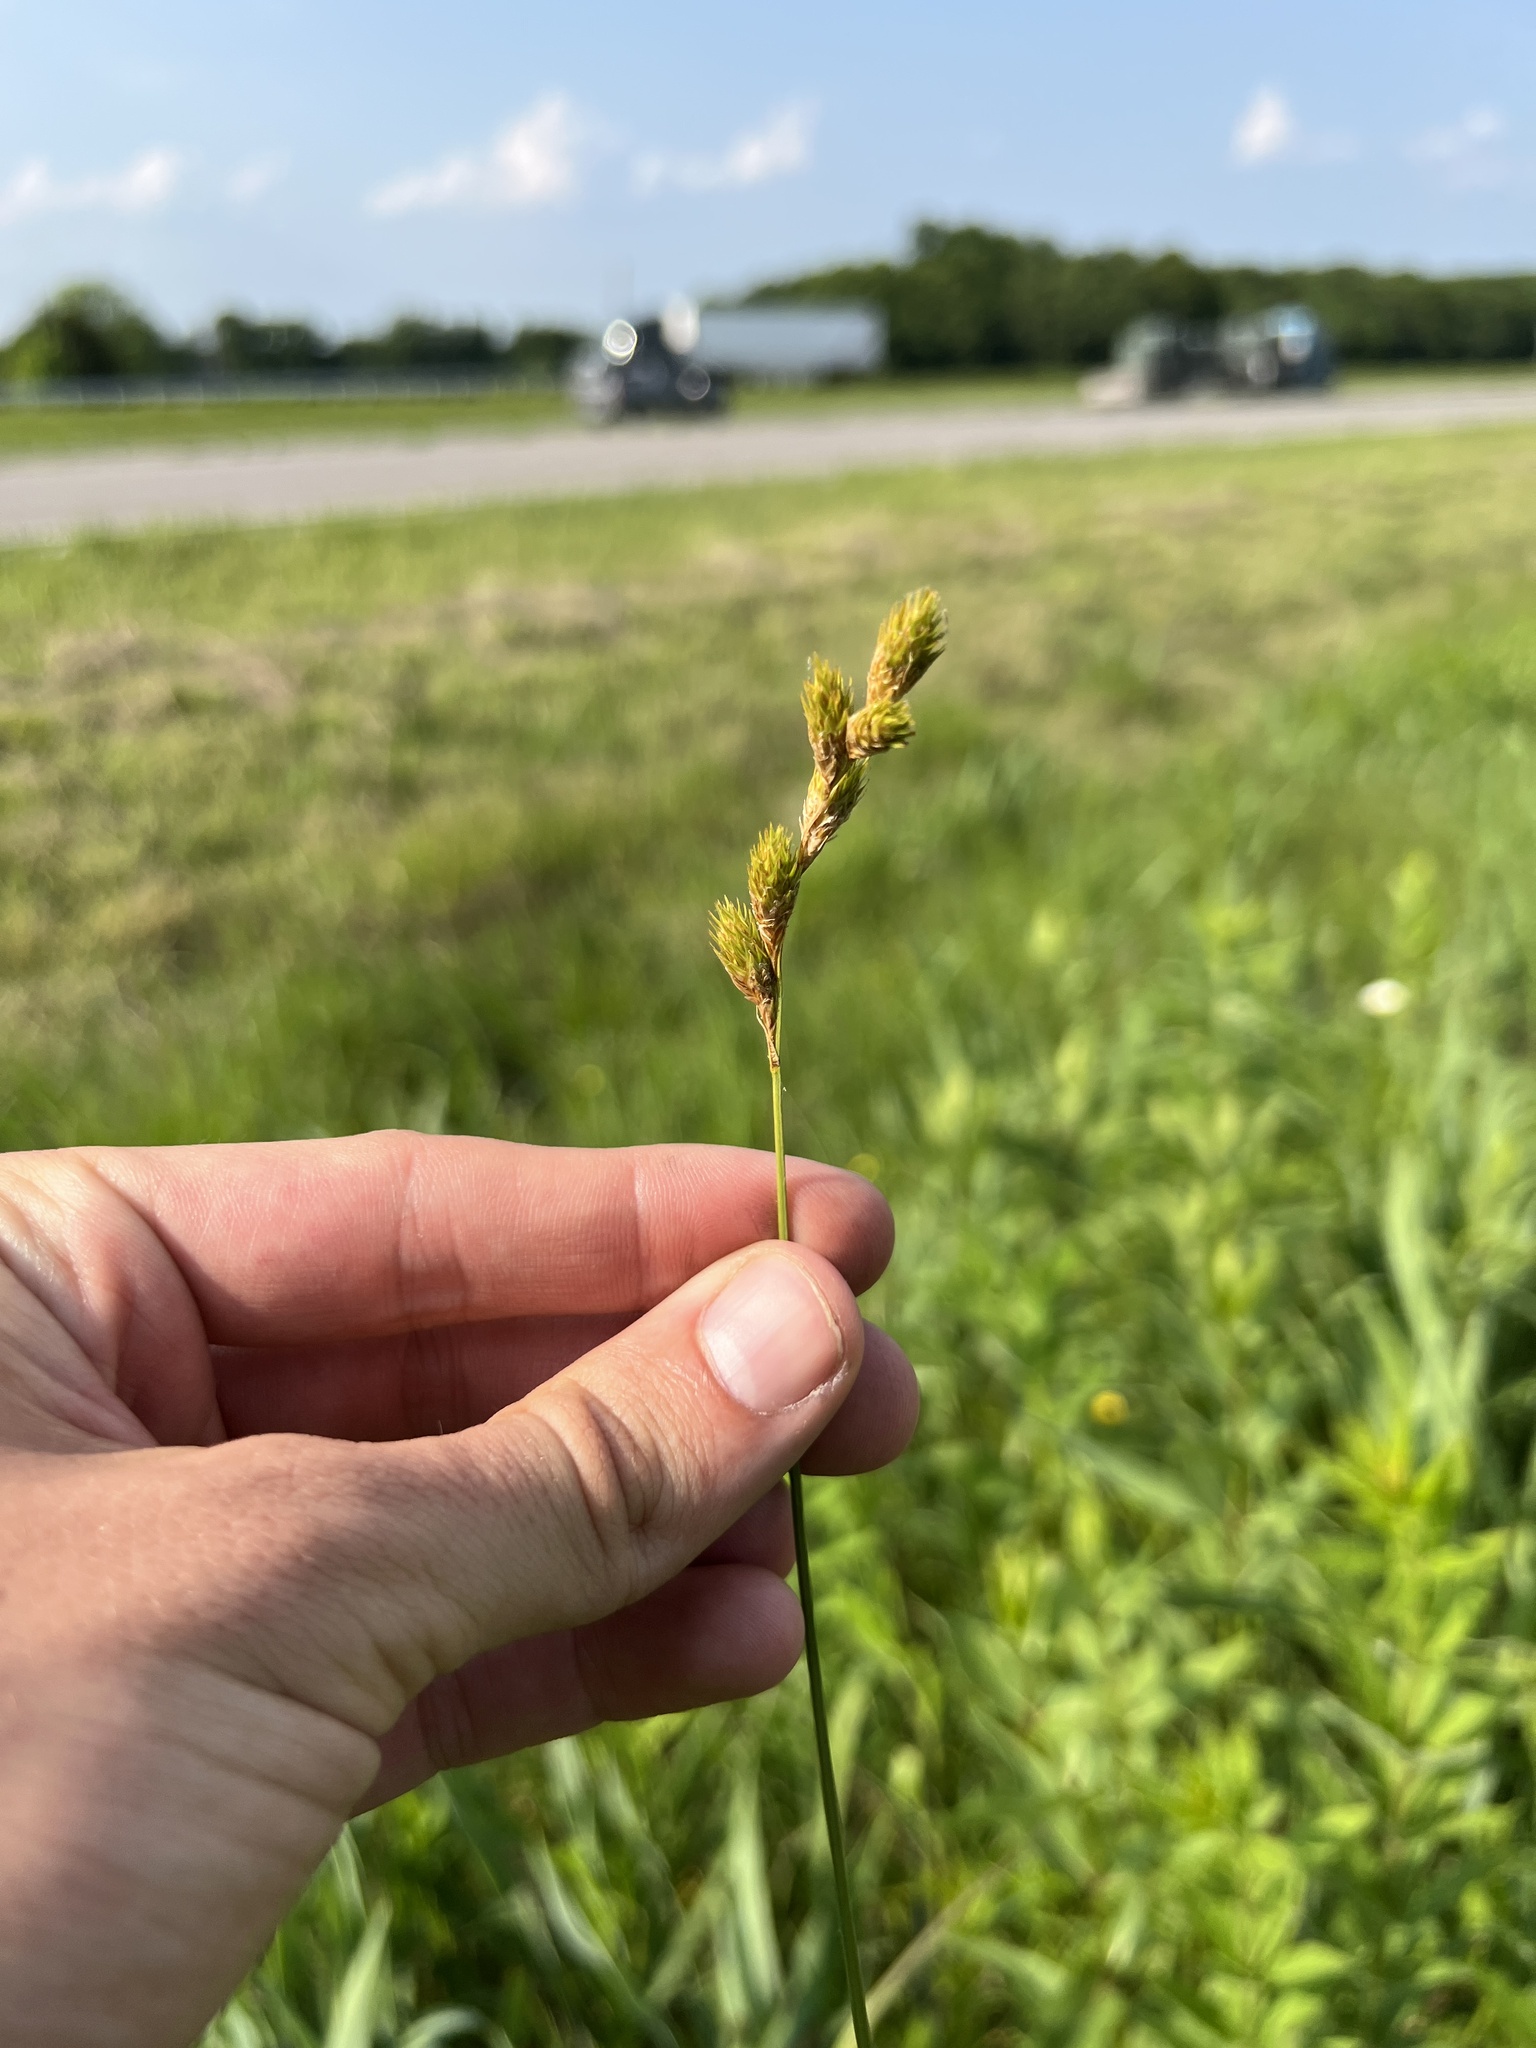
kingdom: Plantae
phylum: Tracheophyta
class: Liliopsida
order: Poales
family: Cyperaceae
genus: Carex
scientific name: Carex bicknellii
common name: Bicknell's sedge
